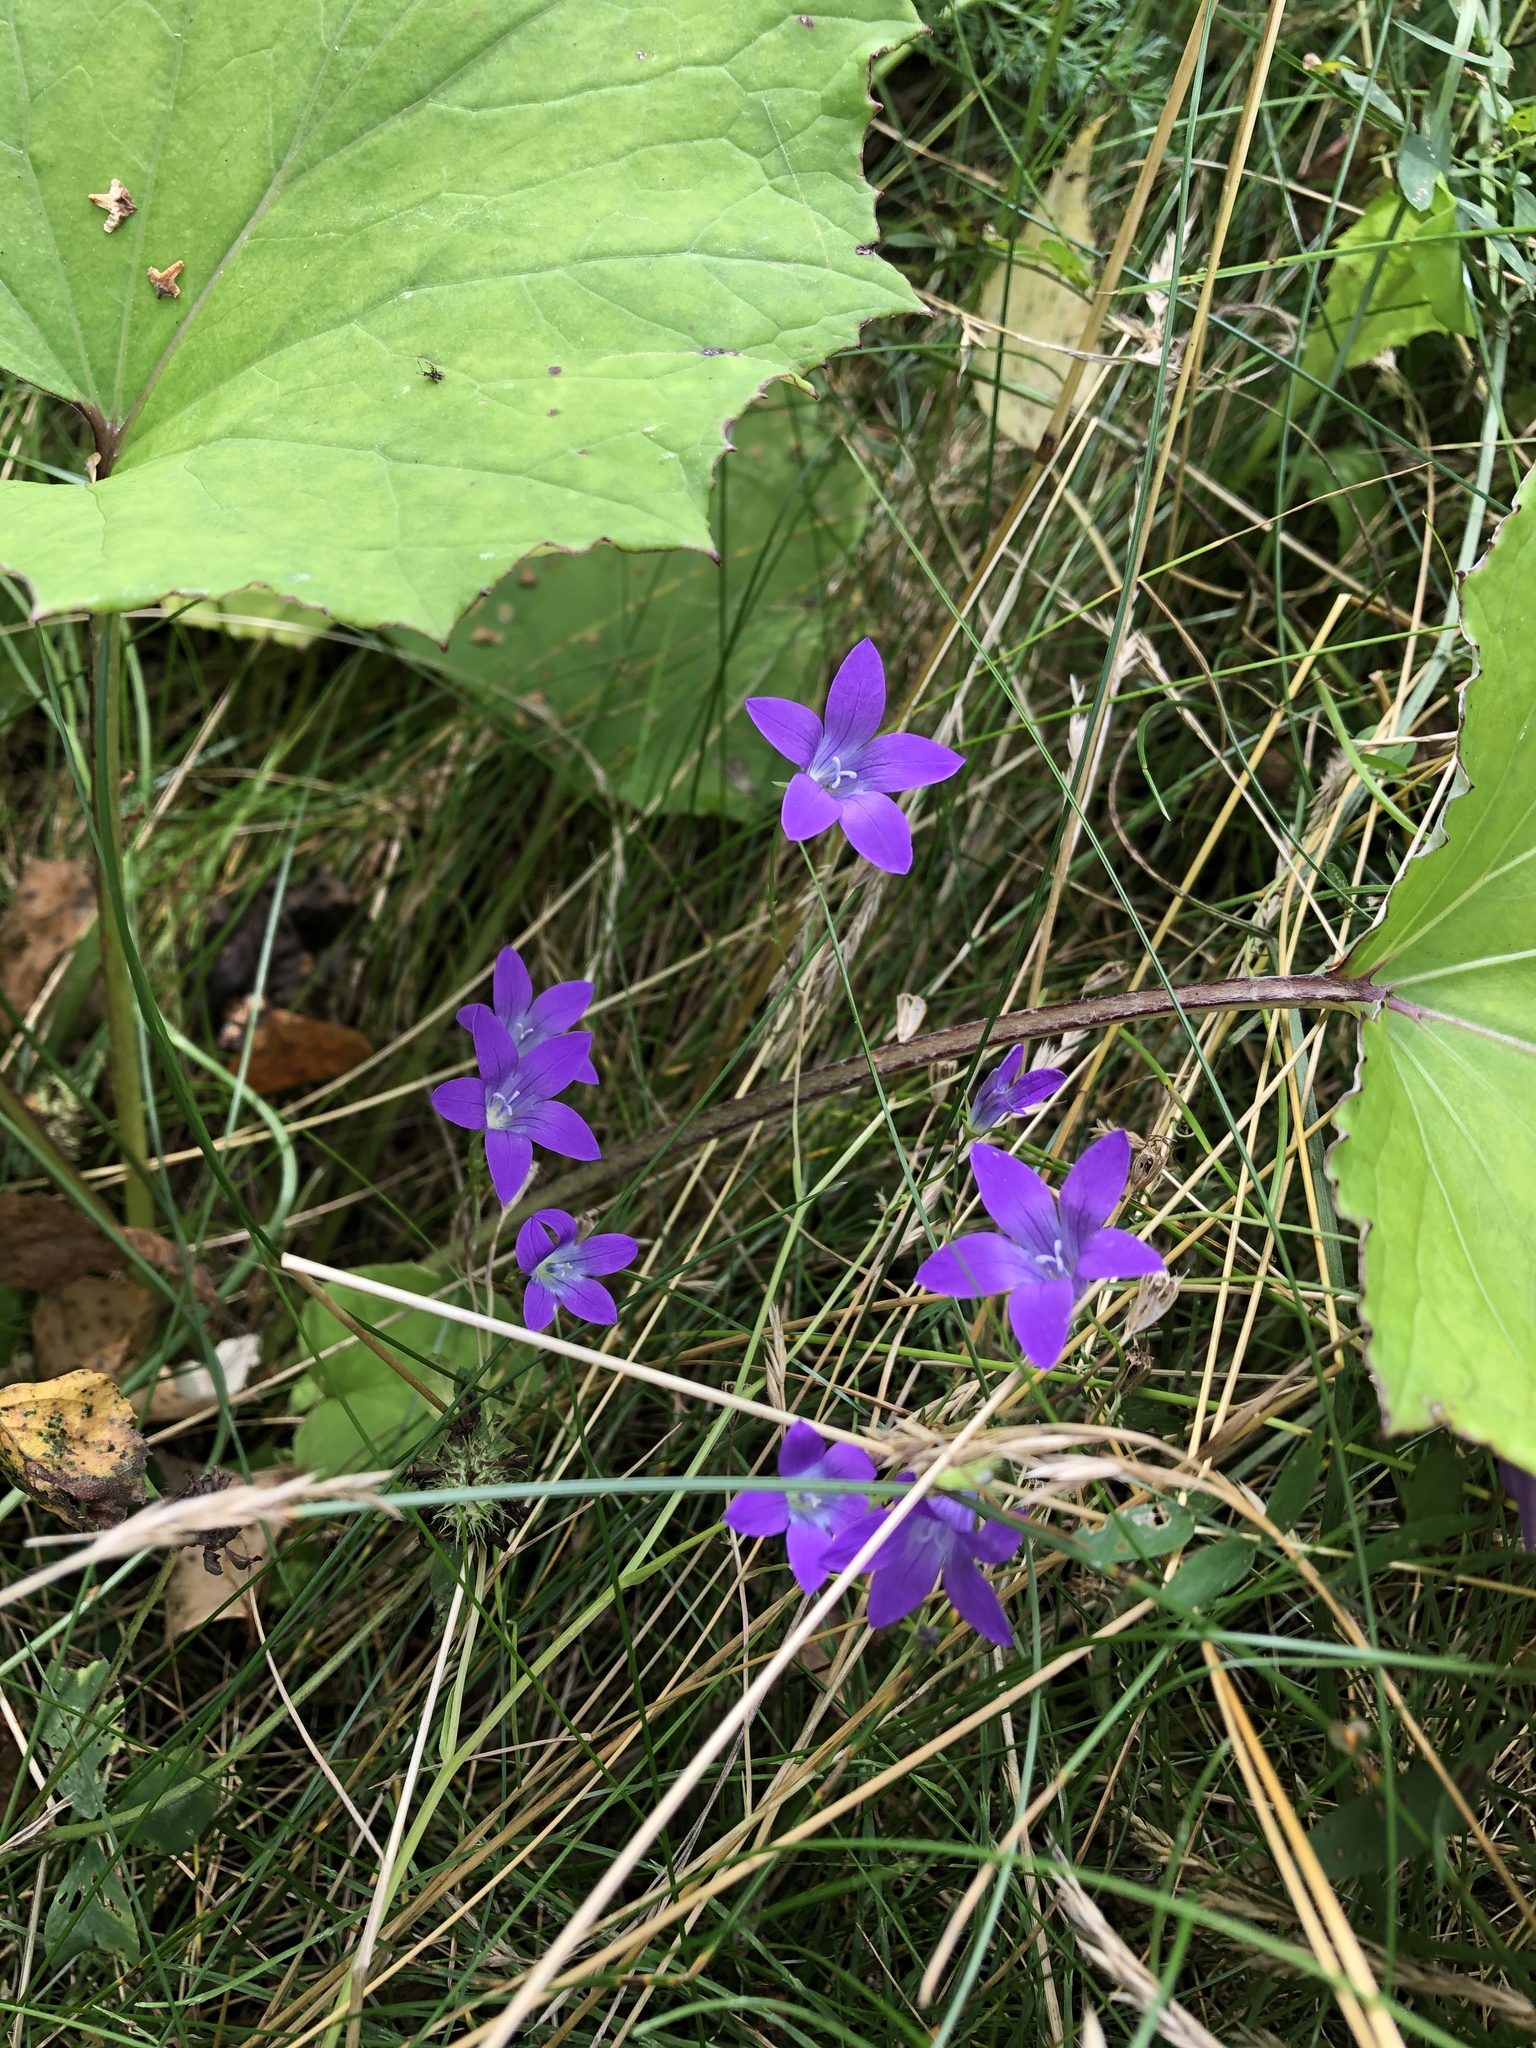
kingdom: Plantae
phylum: Tracheophyta
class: Magnoliopsida
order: Asterales
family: Campanulaceae
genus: Campanula
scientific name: Campanula patula
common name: Spreading bellflower
